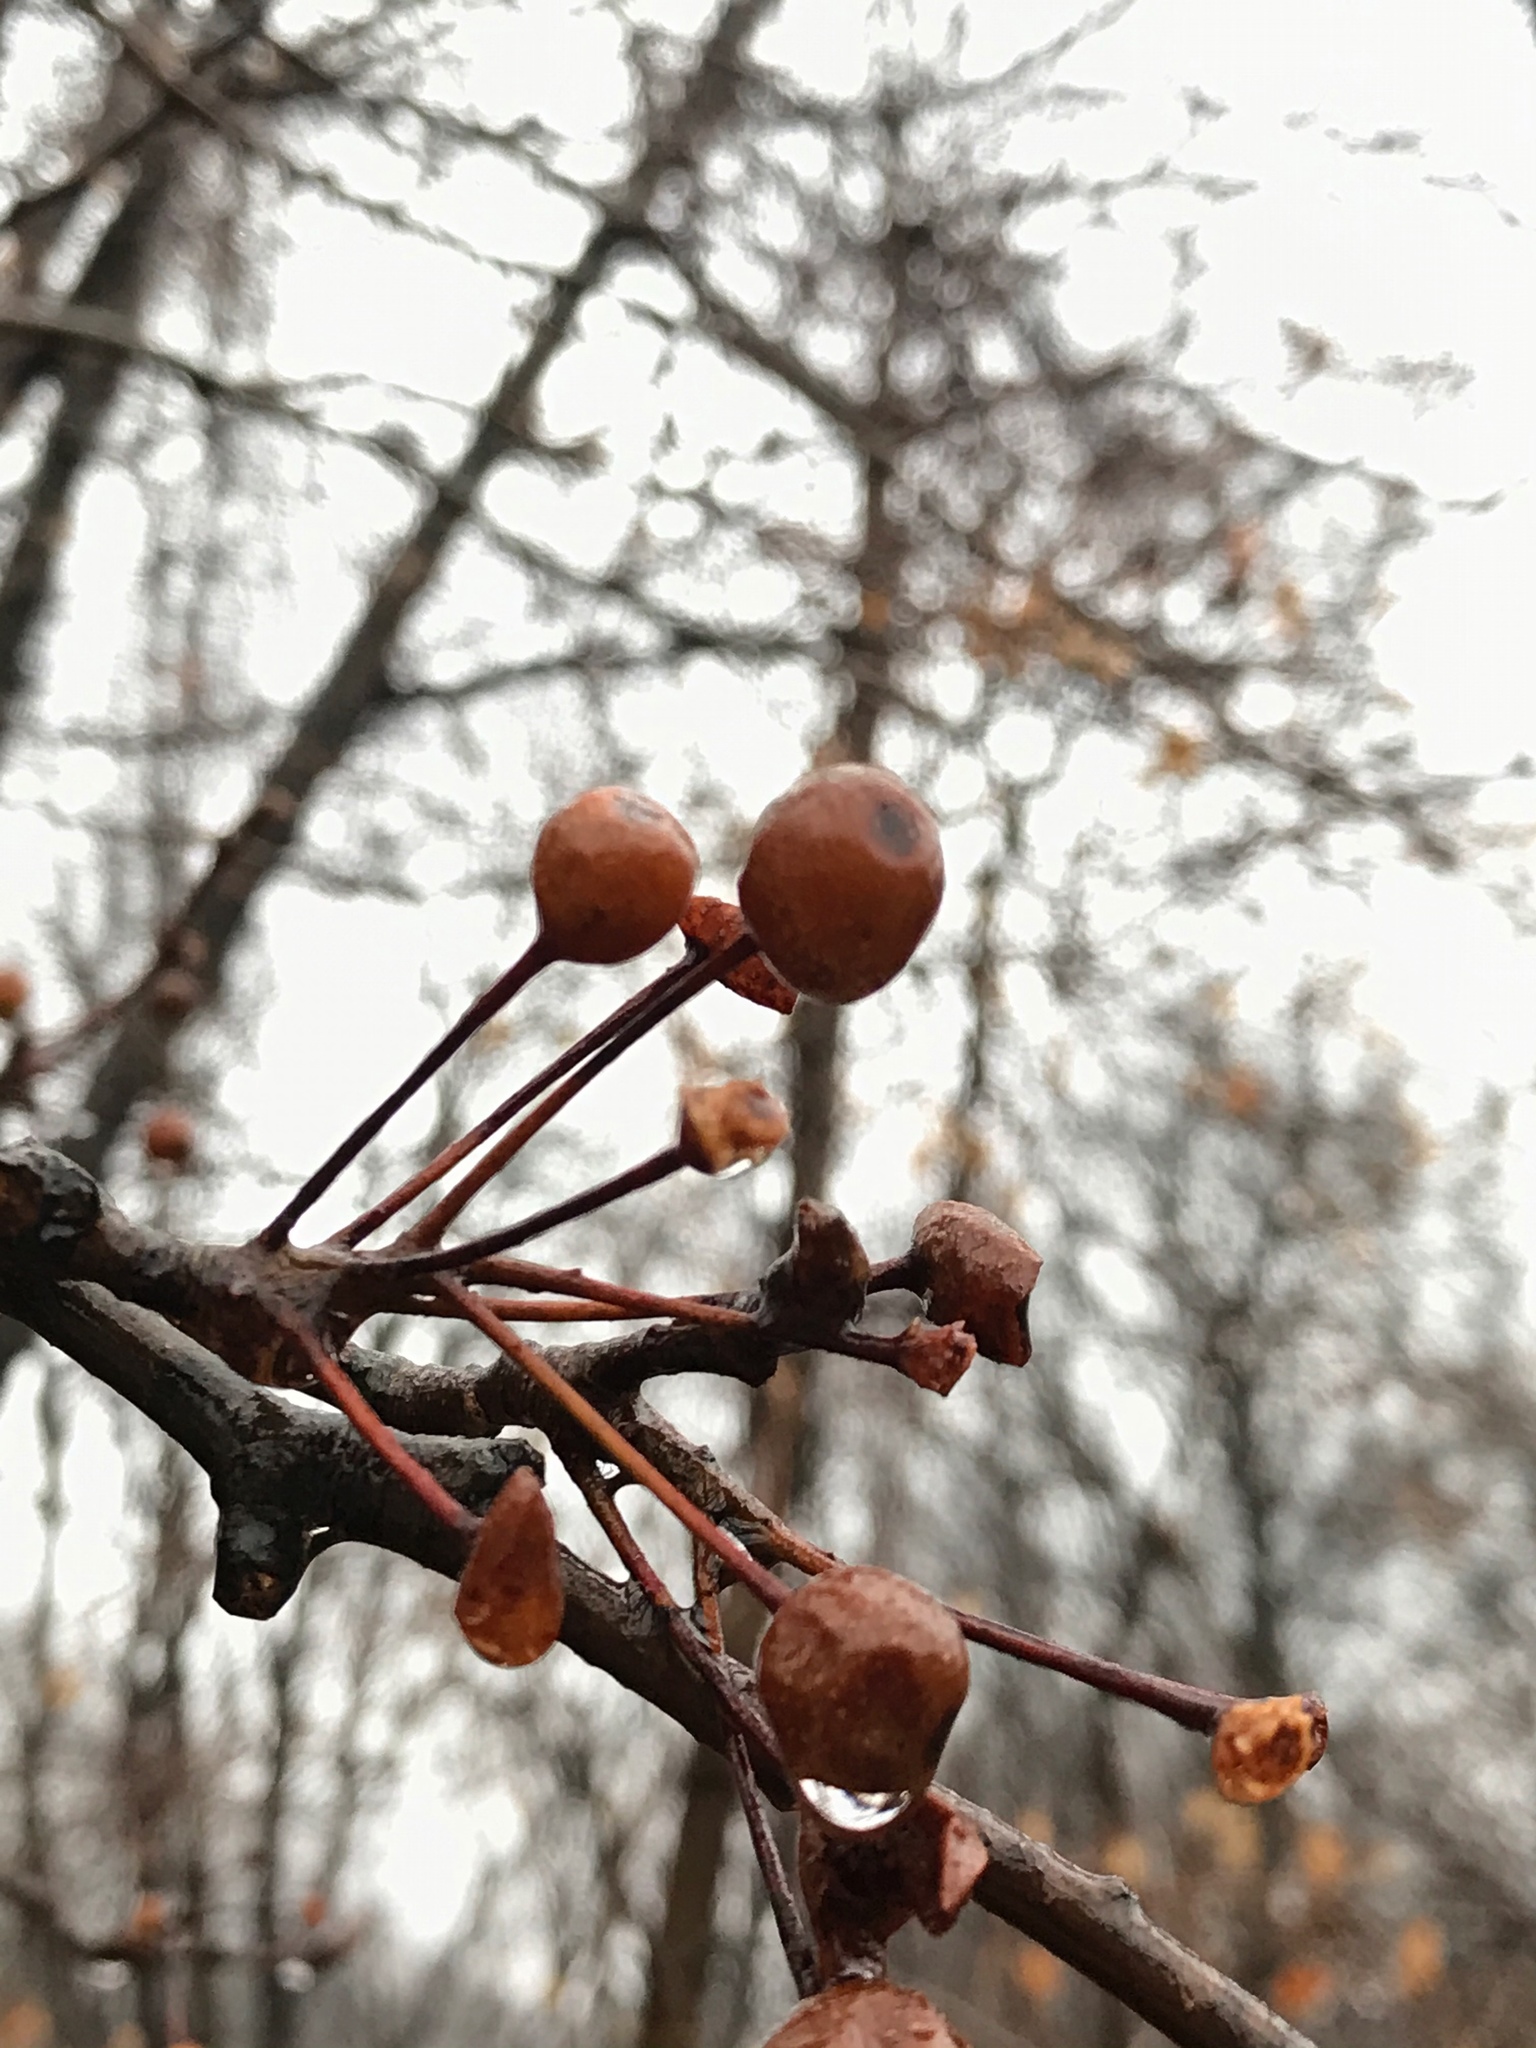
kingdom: Plantae
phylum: Tracheophyta
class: Magnoliopsida
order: Rosales
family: Rosaceae
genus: Pyrus
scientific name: Pyrus calleryana
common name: Callery pear
